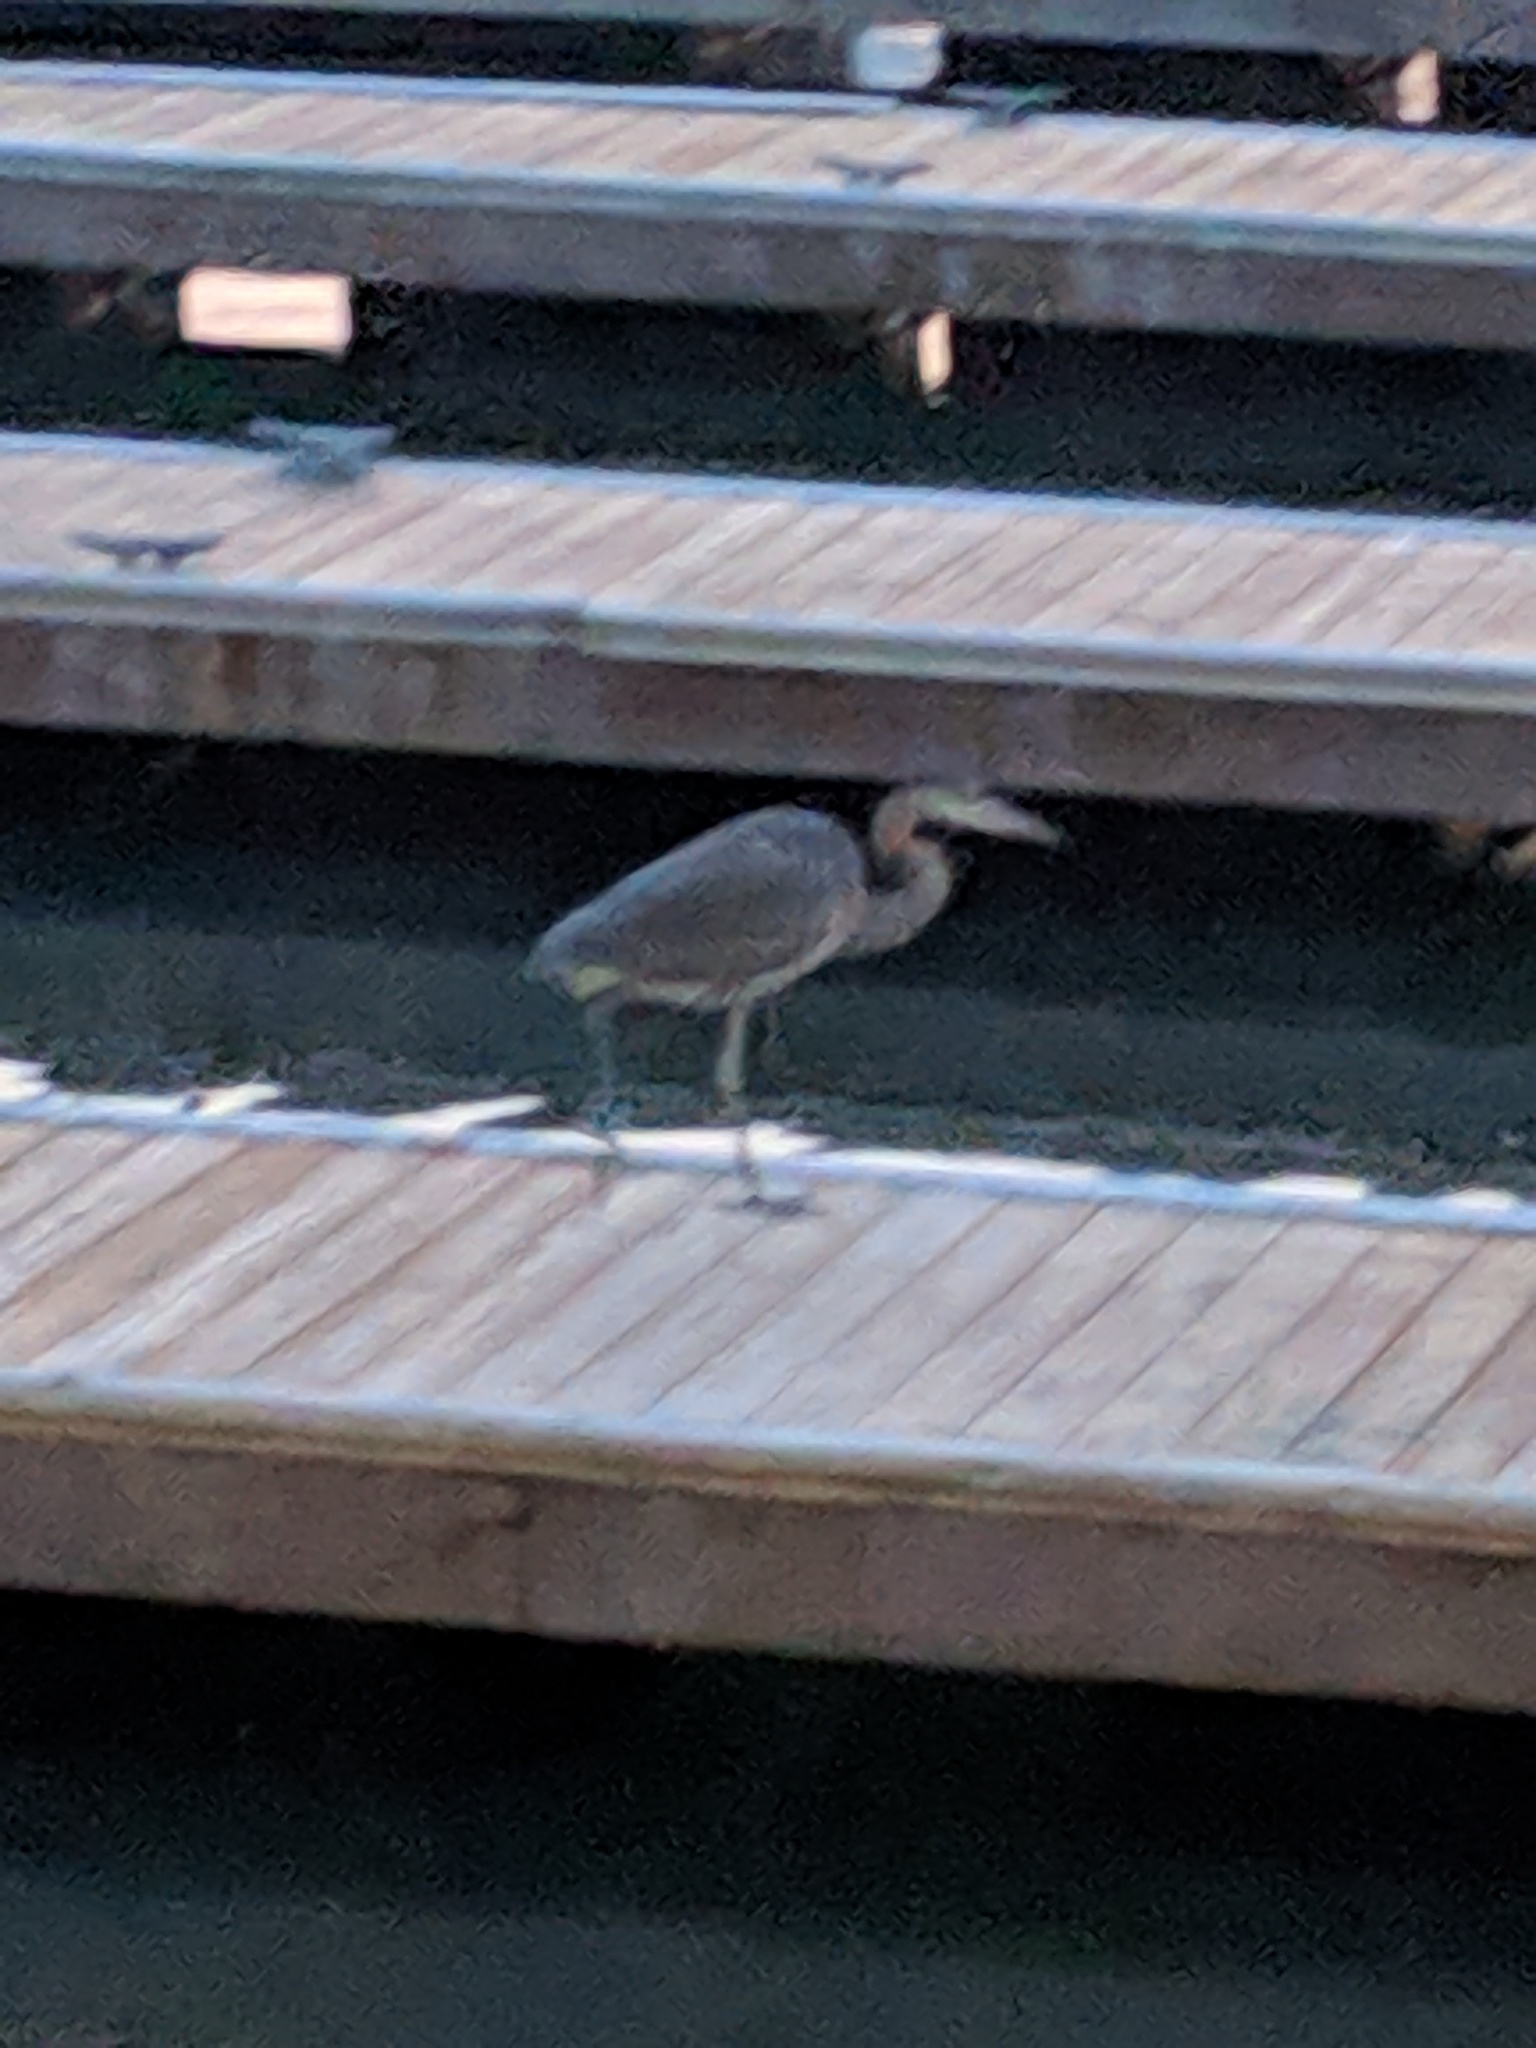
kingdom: Animalia
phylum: Chordata
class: Aves
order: Pelecaniformes
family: Ardeidae
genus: Ardea
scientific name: Ardea herodias
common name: Great blue heron
